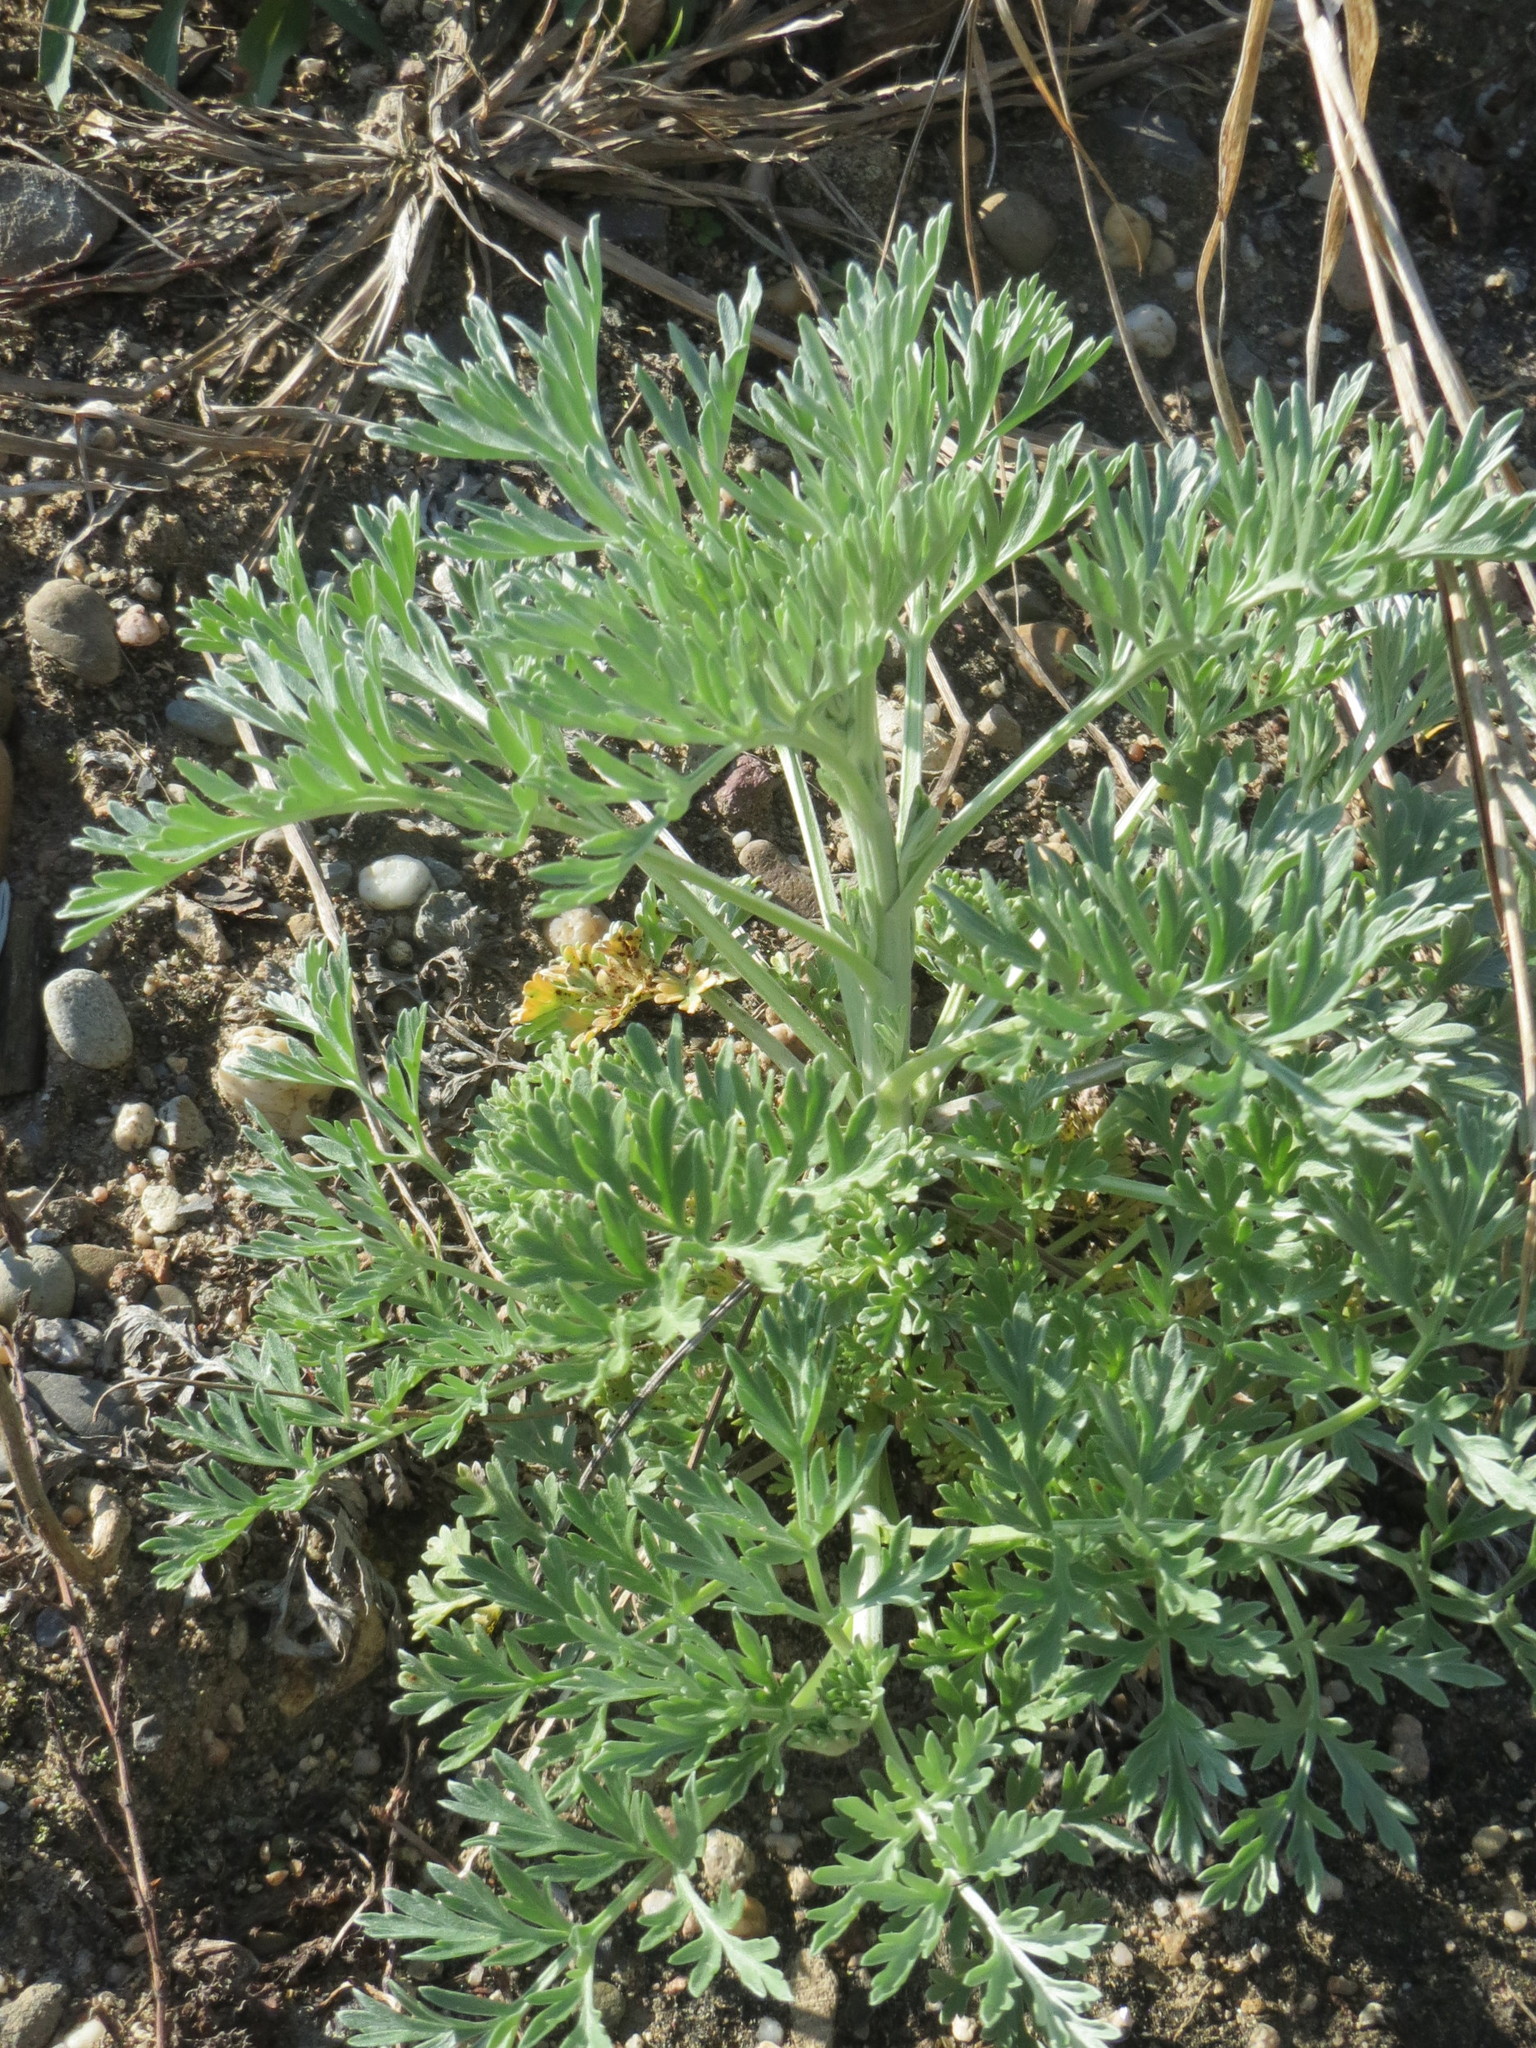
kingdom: Plantae
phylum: Tracheophyta
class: Magnoliopsida
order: Asterales
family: Asteraceae
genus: Artemisia
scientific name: Artemisia absinthium
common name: Wormwood
